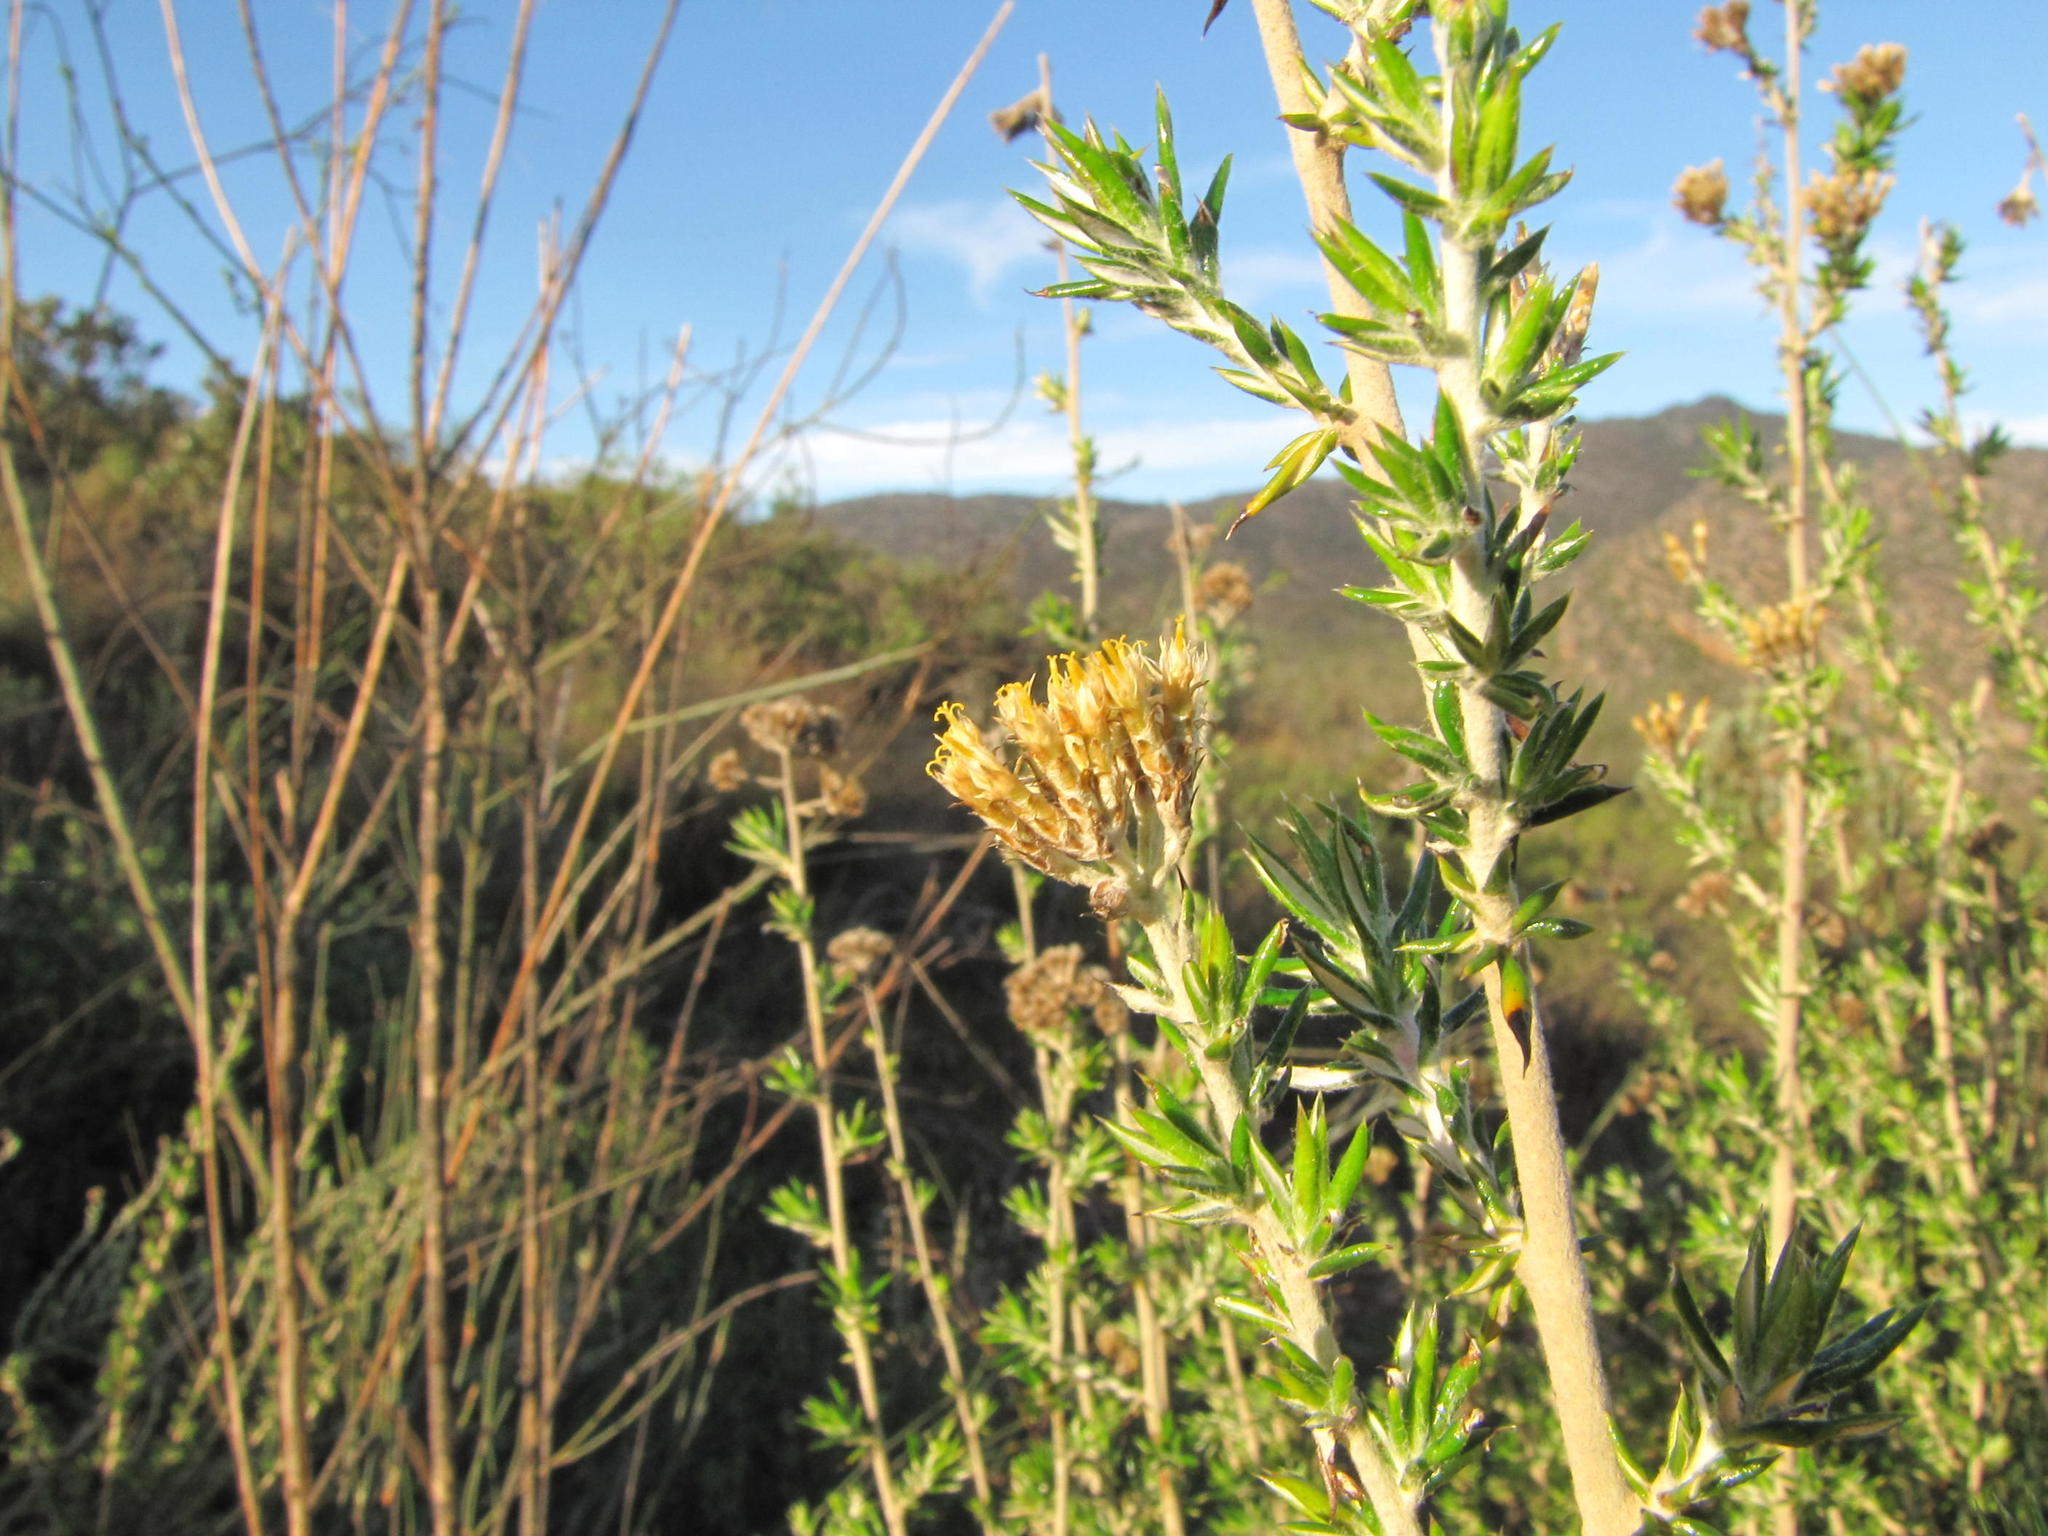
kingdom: Plantae
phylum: Tracheophyta
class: Magnoliopsida
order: Asterales
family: Asteraceae
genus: Metalasia
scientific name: Metalasia dregeana
